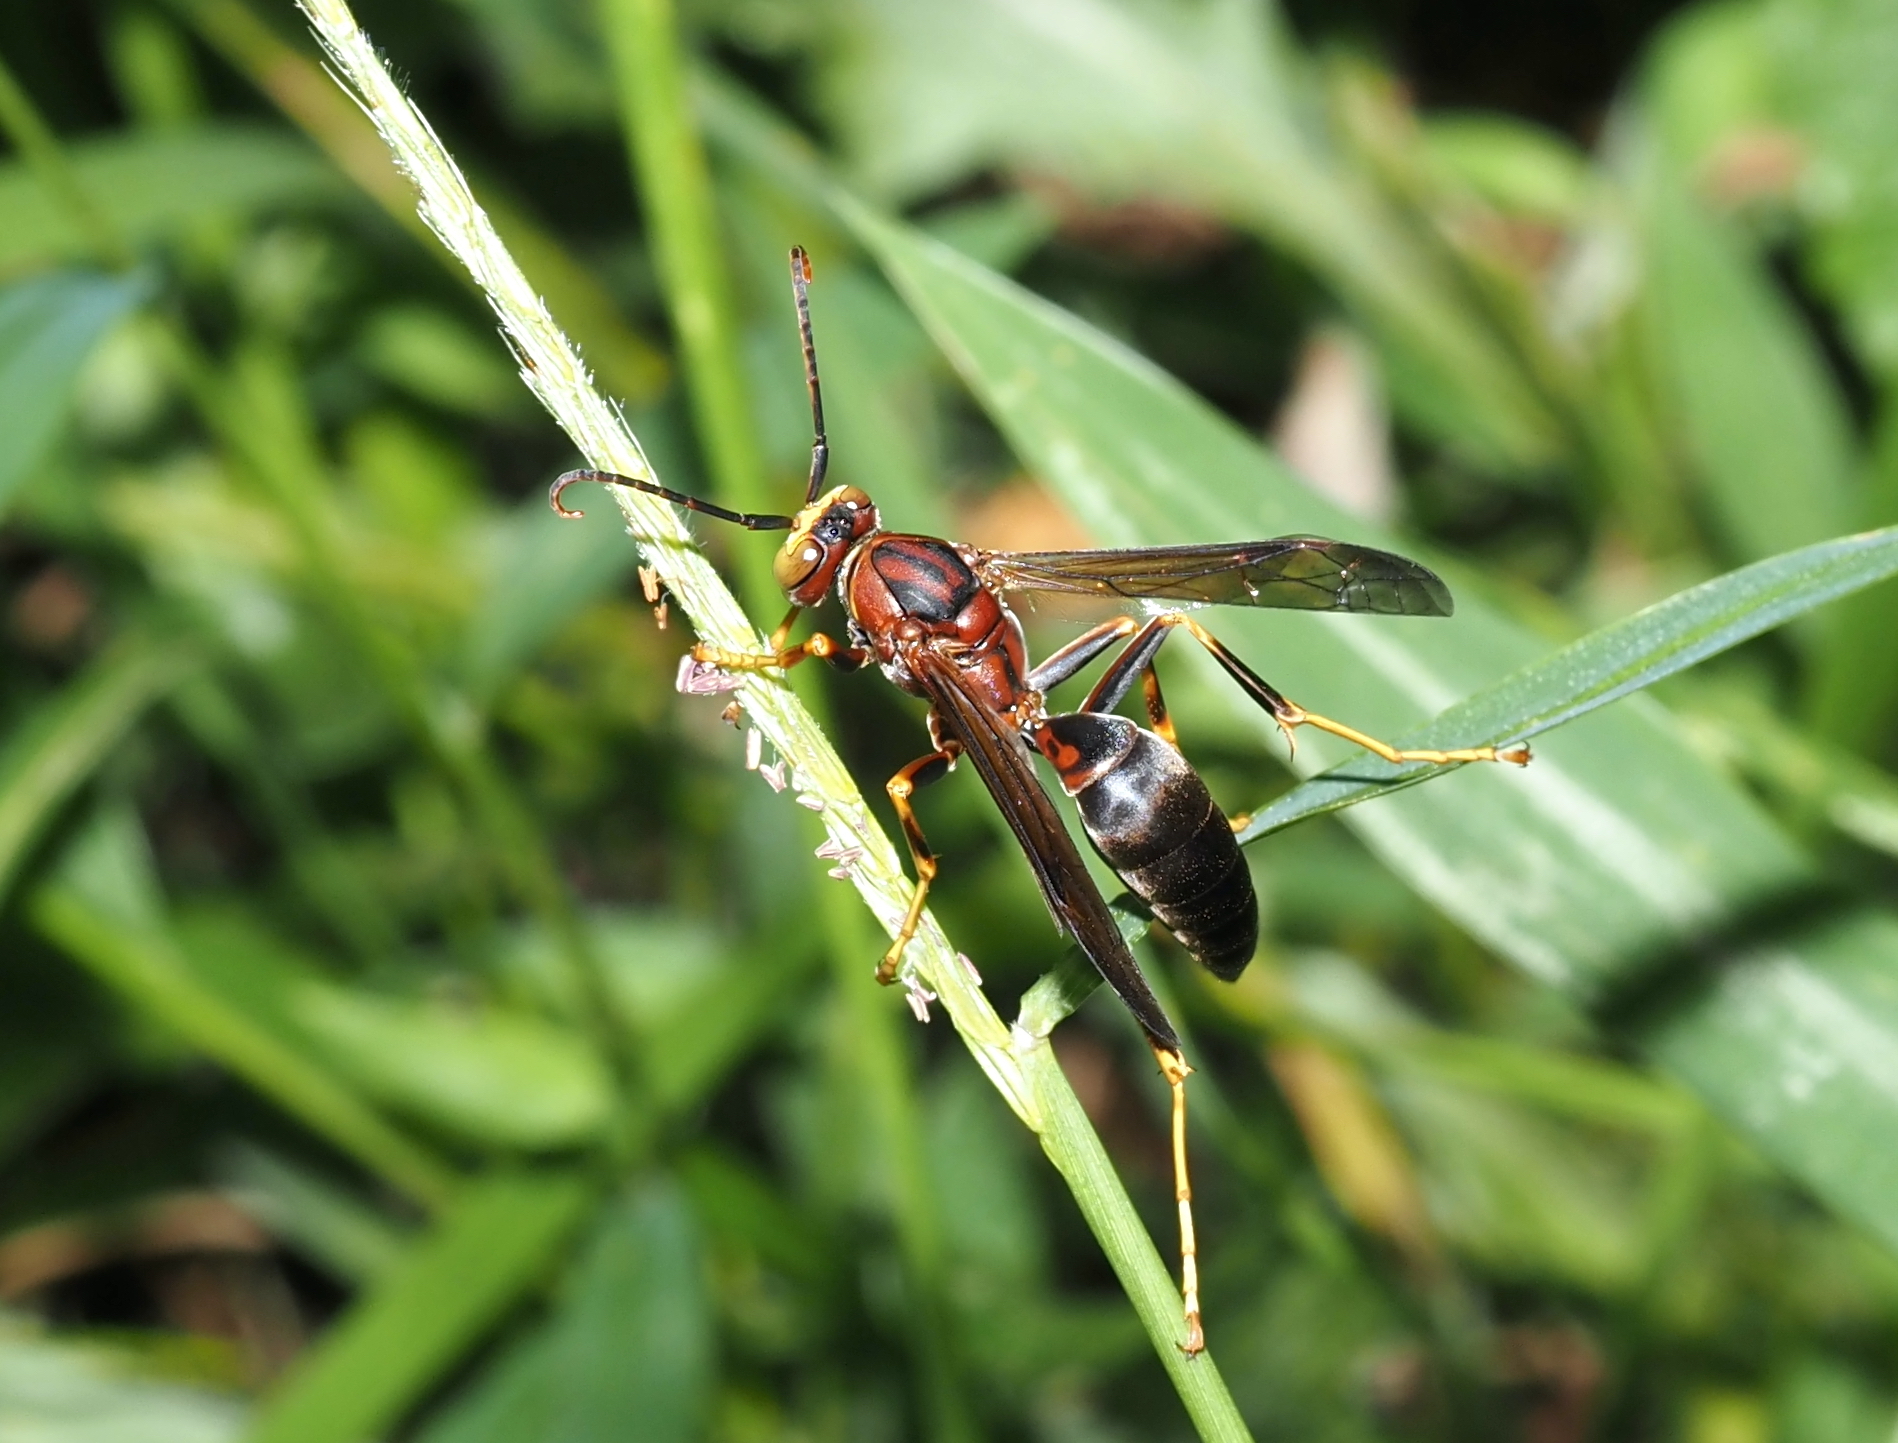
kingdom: Animalia
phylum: Arthropoda
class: Insecta
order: Hymenoptera
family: Eumenidae
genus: Polistes
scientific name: Polistes metricus
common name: Metric paper wasp
